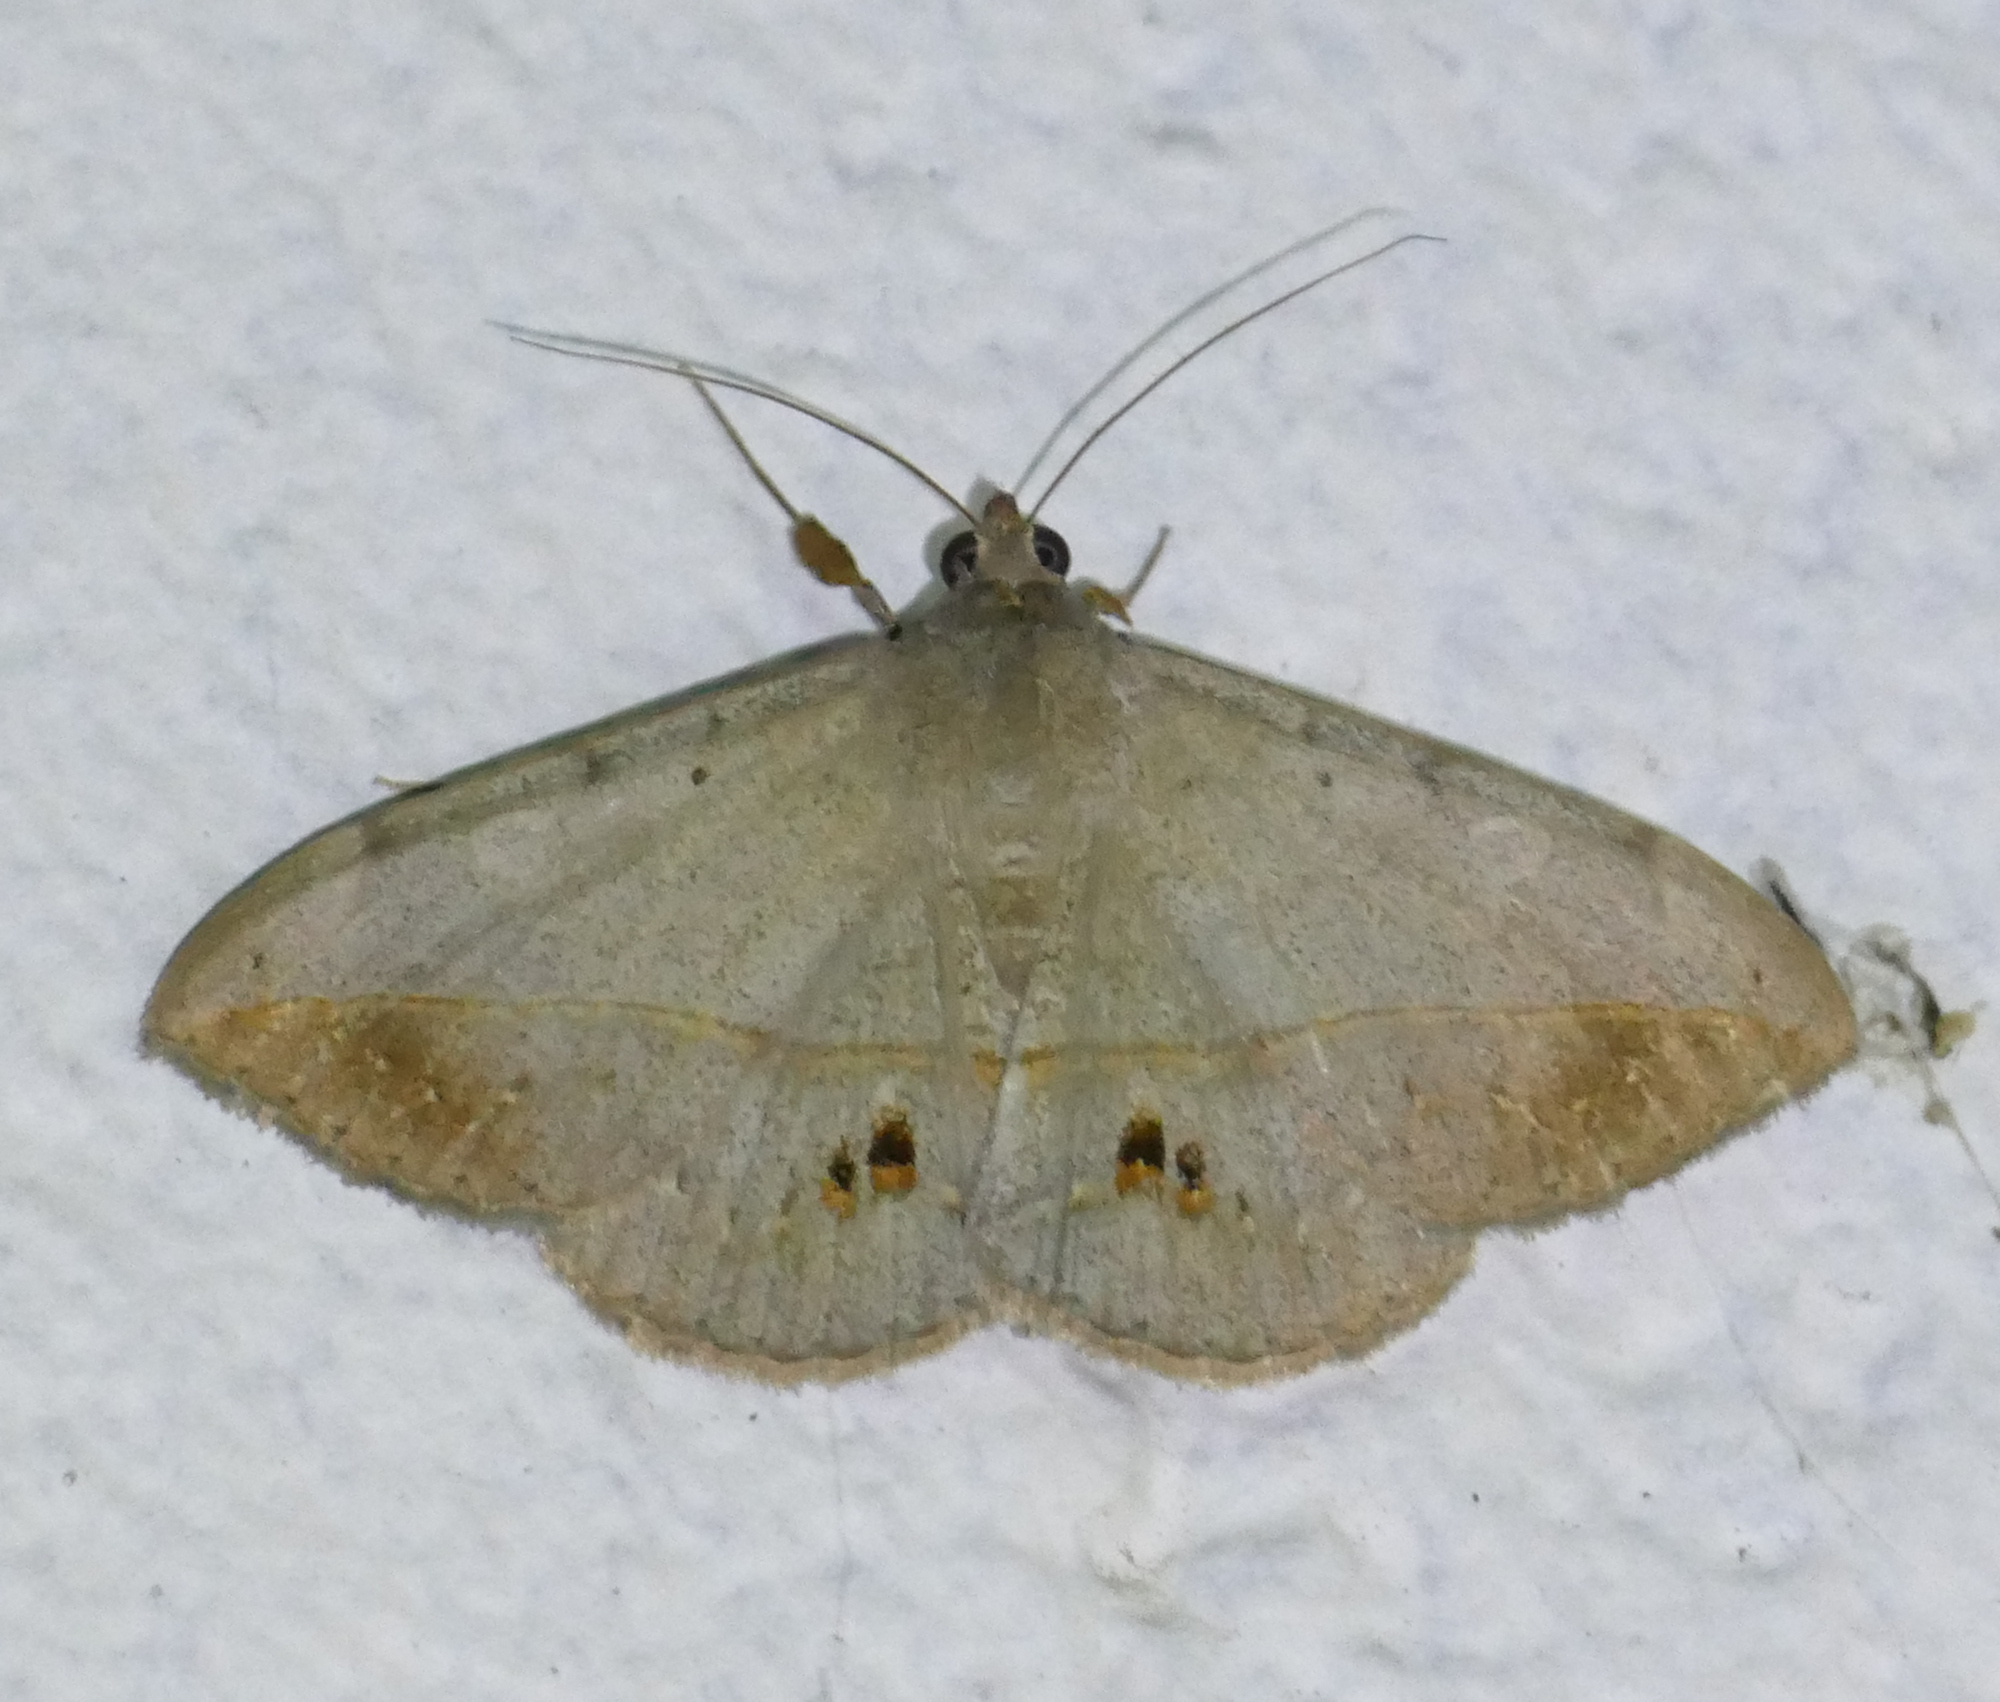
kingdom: Animalia
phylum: Arthropoda
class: Insecta
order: Lepidoptera
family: Erebidae
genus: Anticarsia
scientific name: Anticarsia gemmatalis
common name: Cutworm moth
